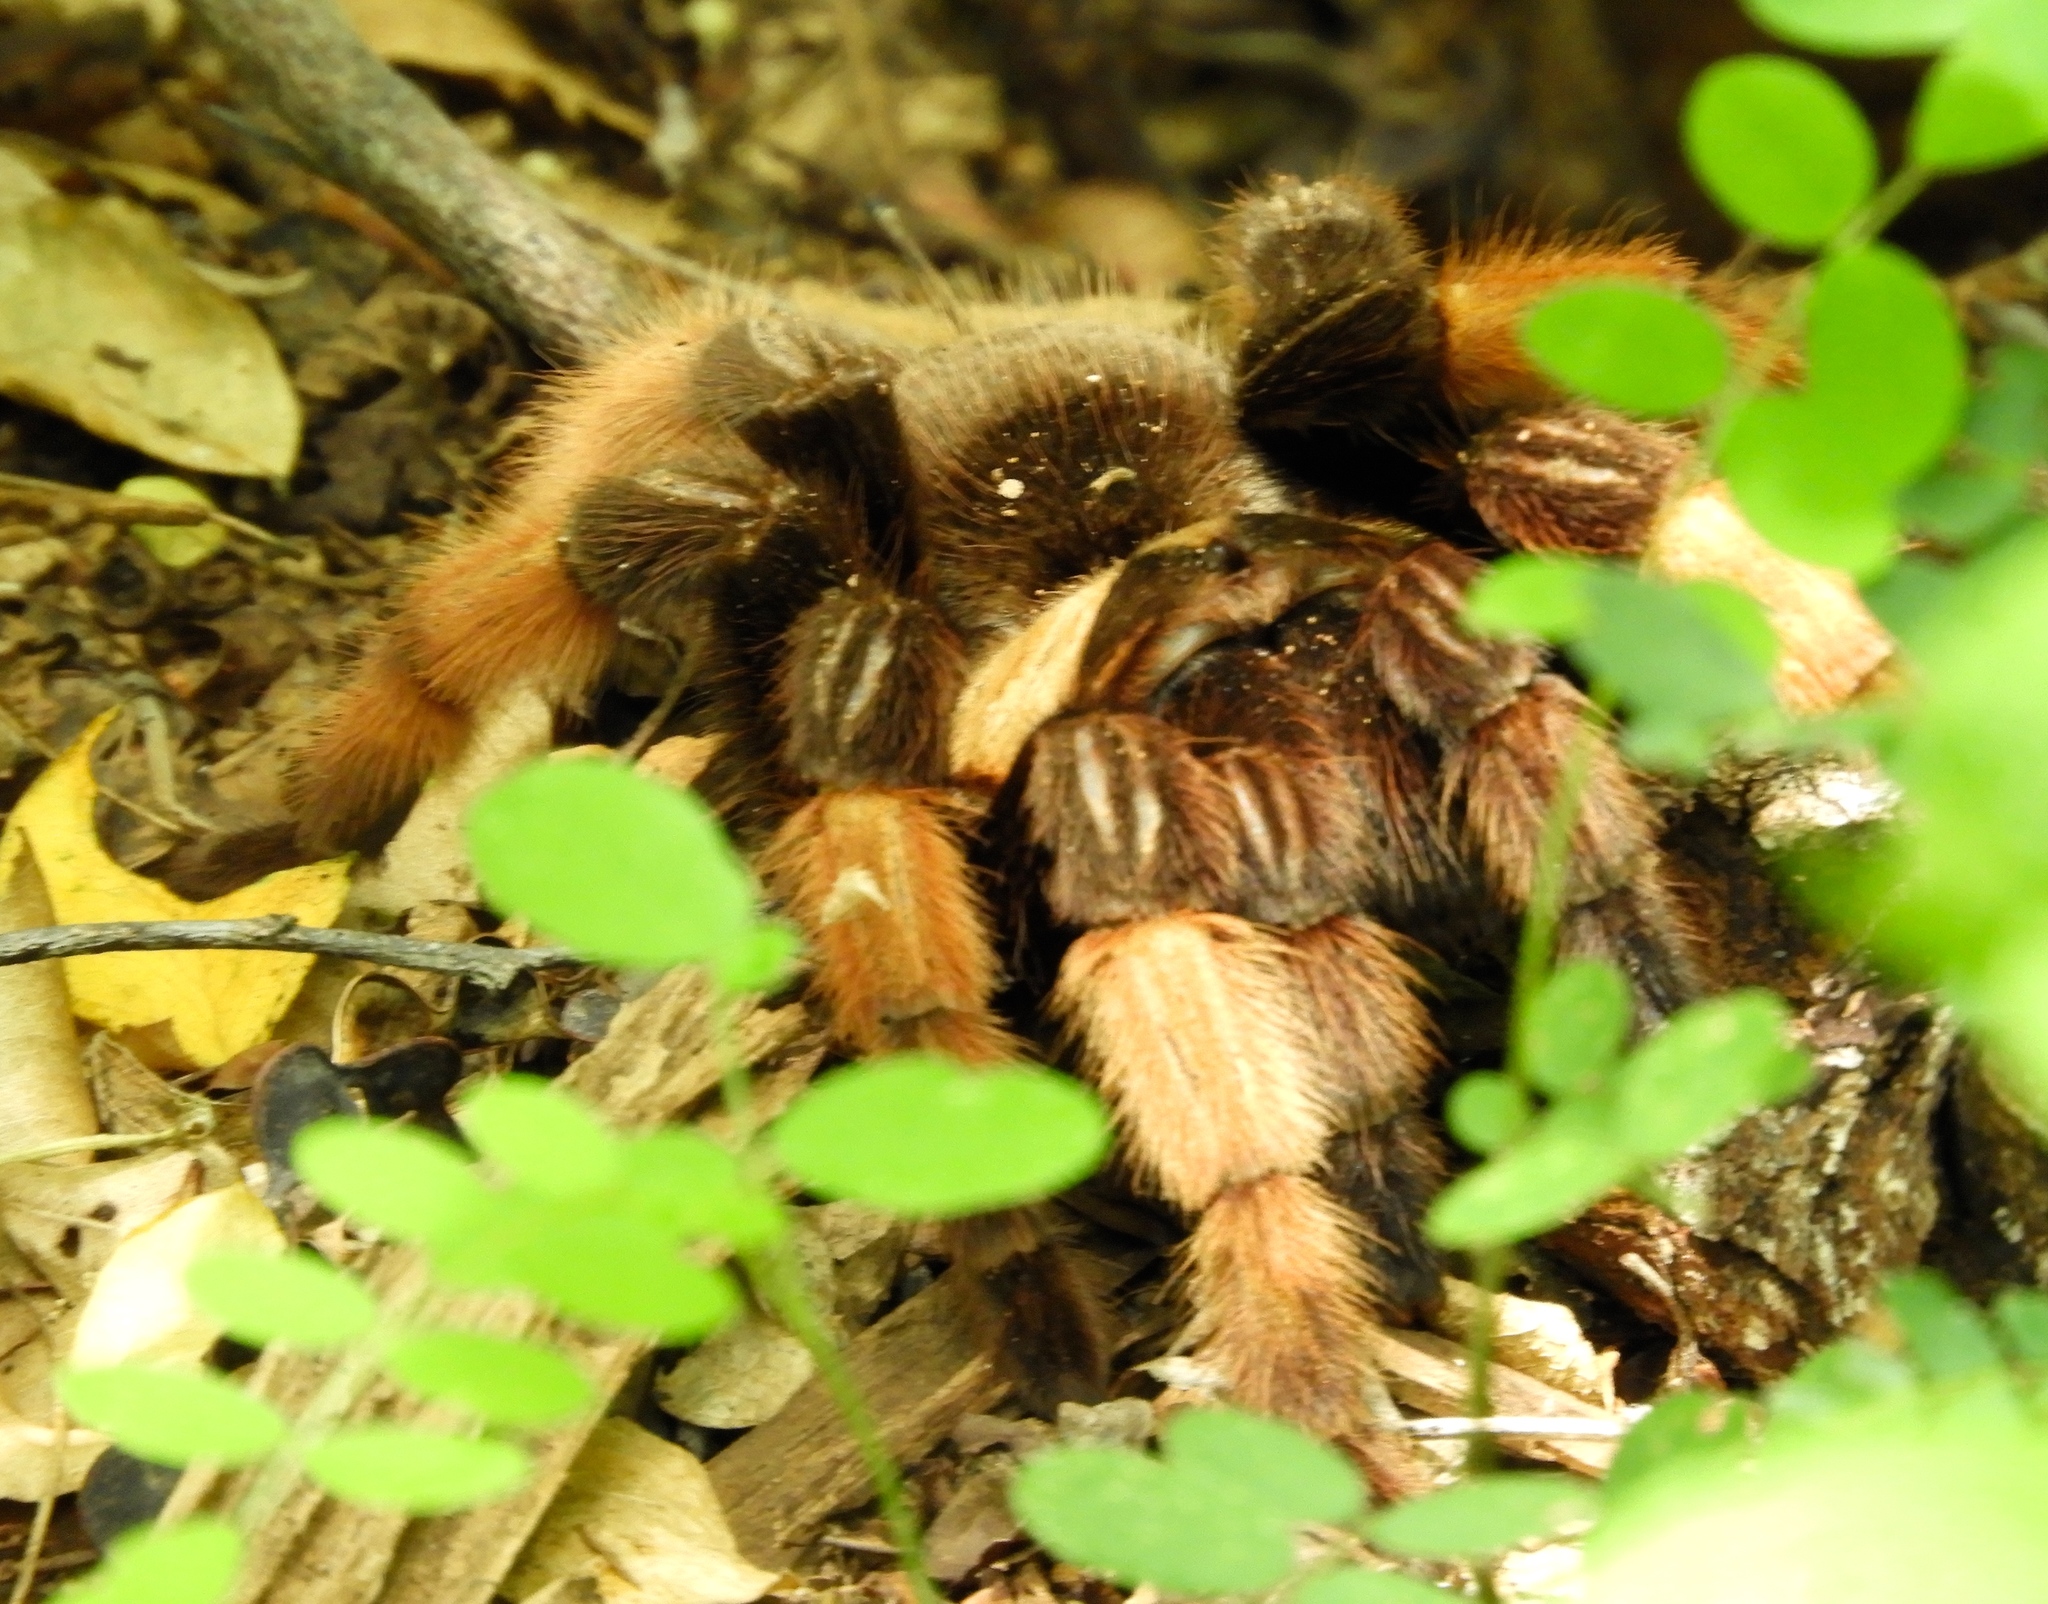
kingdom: Animalia
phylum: Arthropoda
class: Arachnida
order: Araneae
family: Theraphosidae
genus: Brachypelma
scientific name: Brachypelma emilia
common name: Mexican redleg
